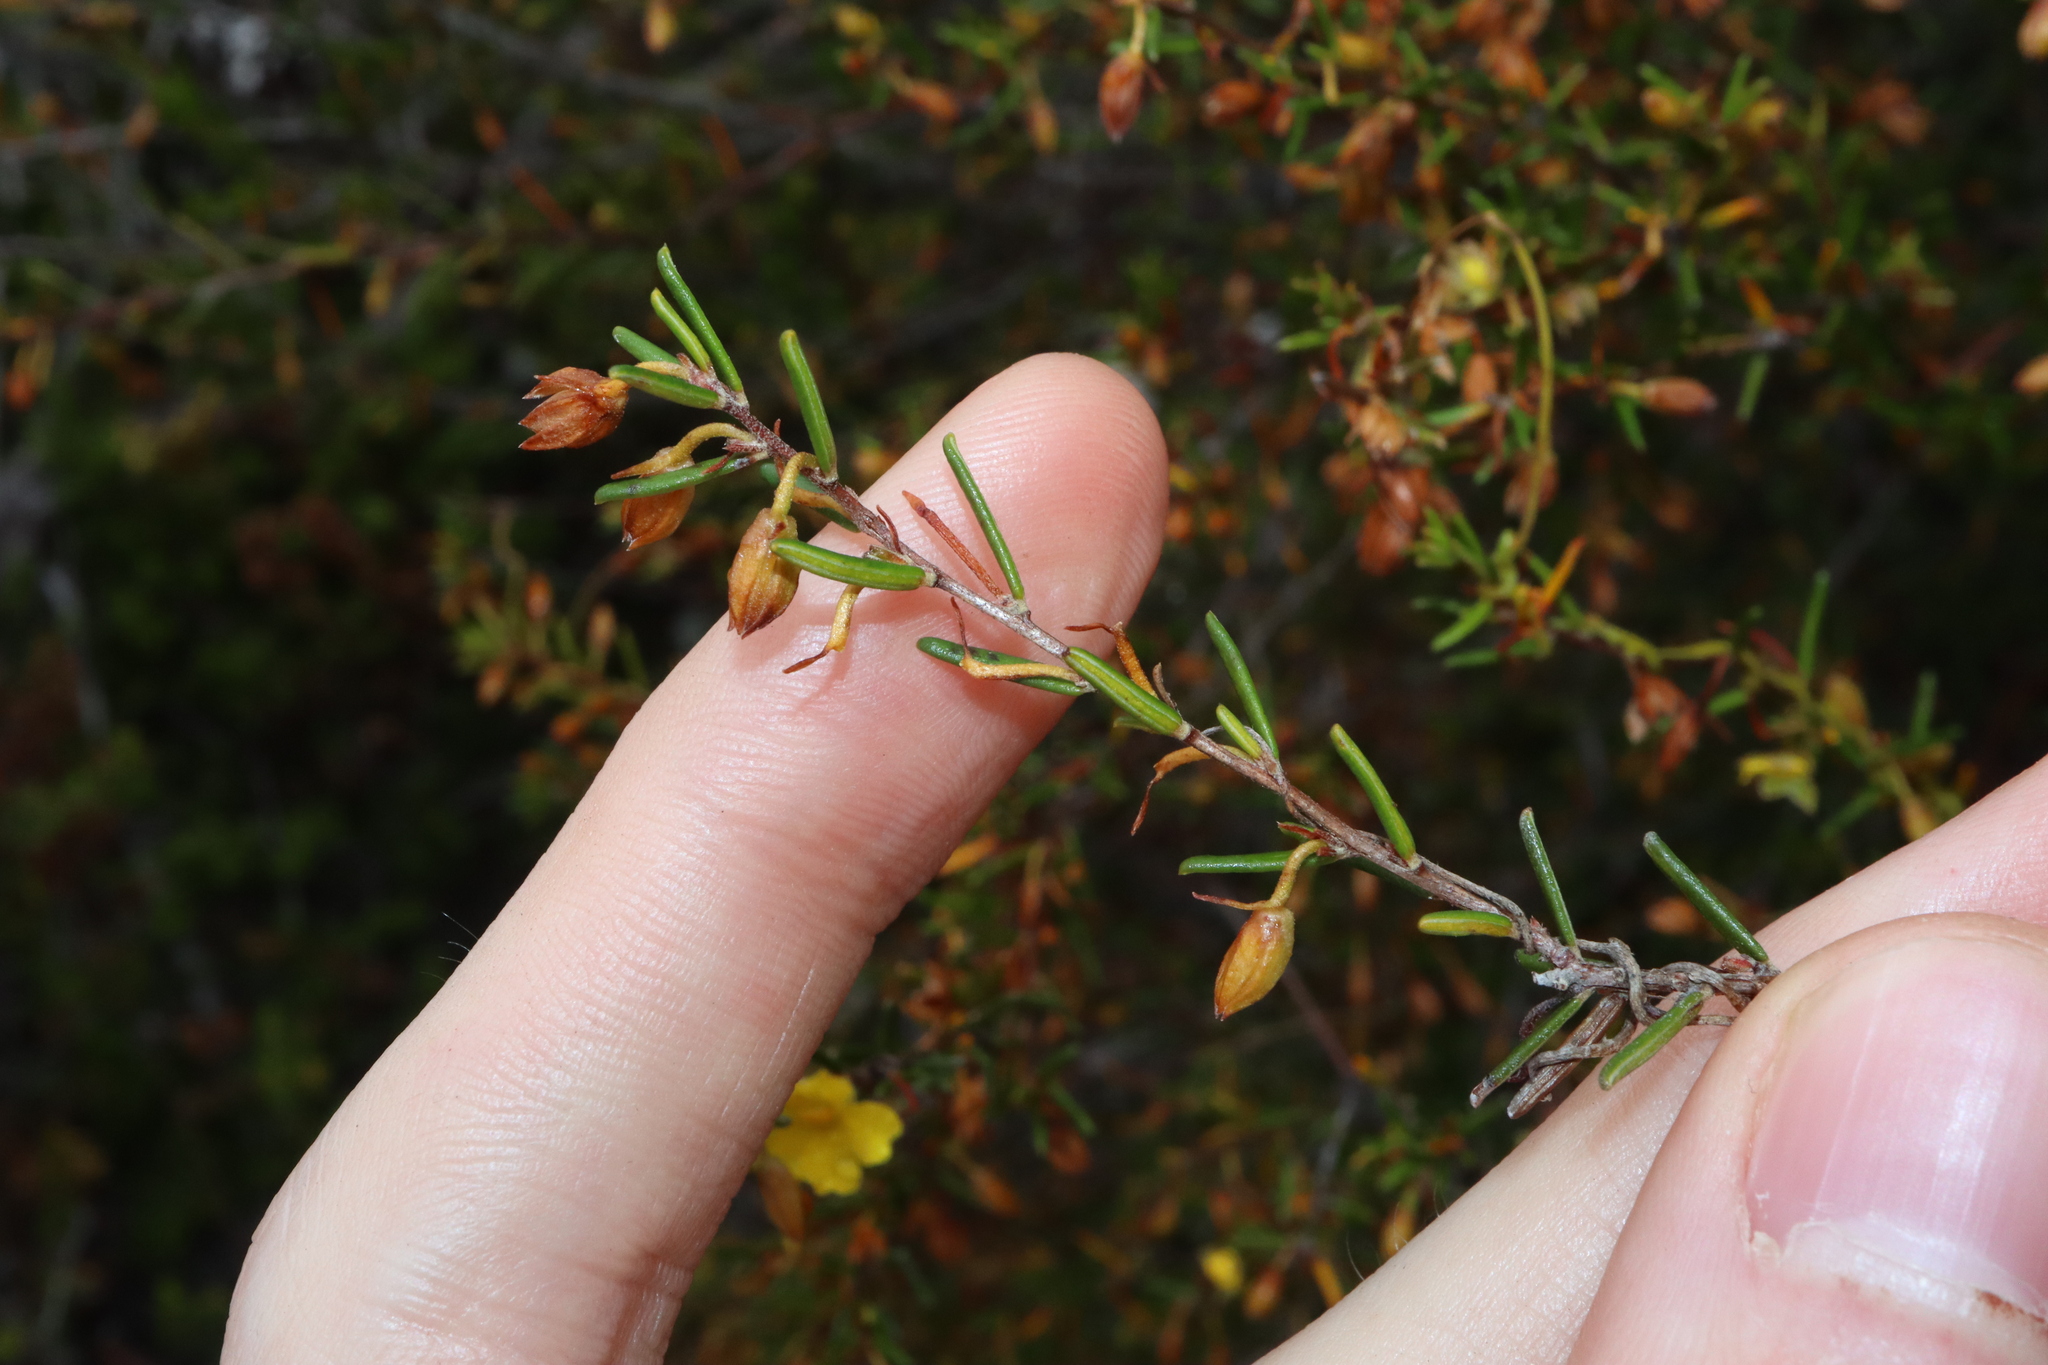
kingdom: Plantae
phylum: Tracheophyta
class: Magnoliopsida
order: Dilleniales
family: Dilleniaceae
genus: Hibbertia
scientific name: Hibbertia papillata
